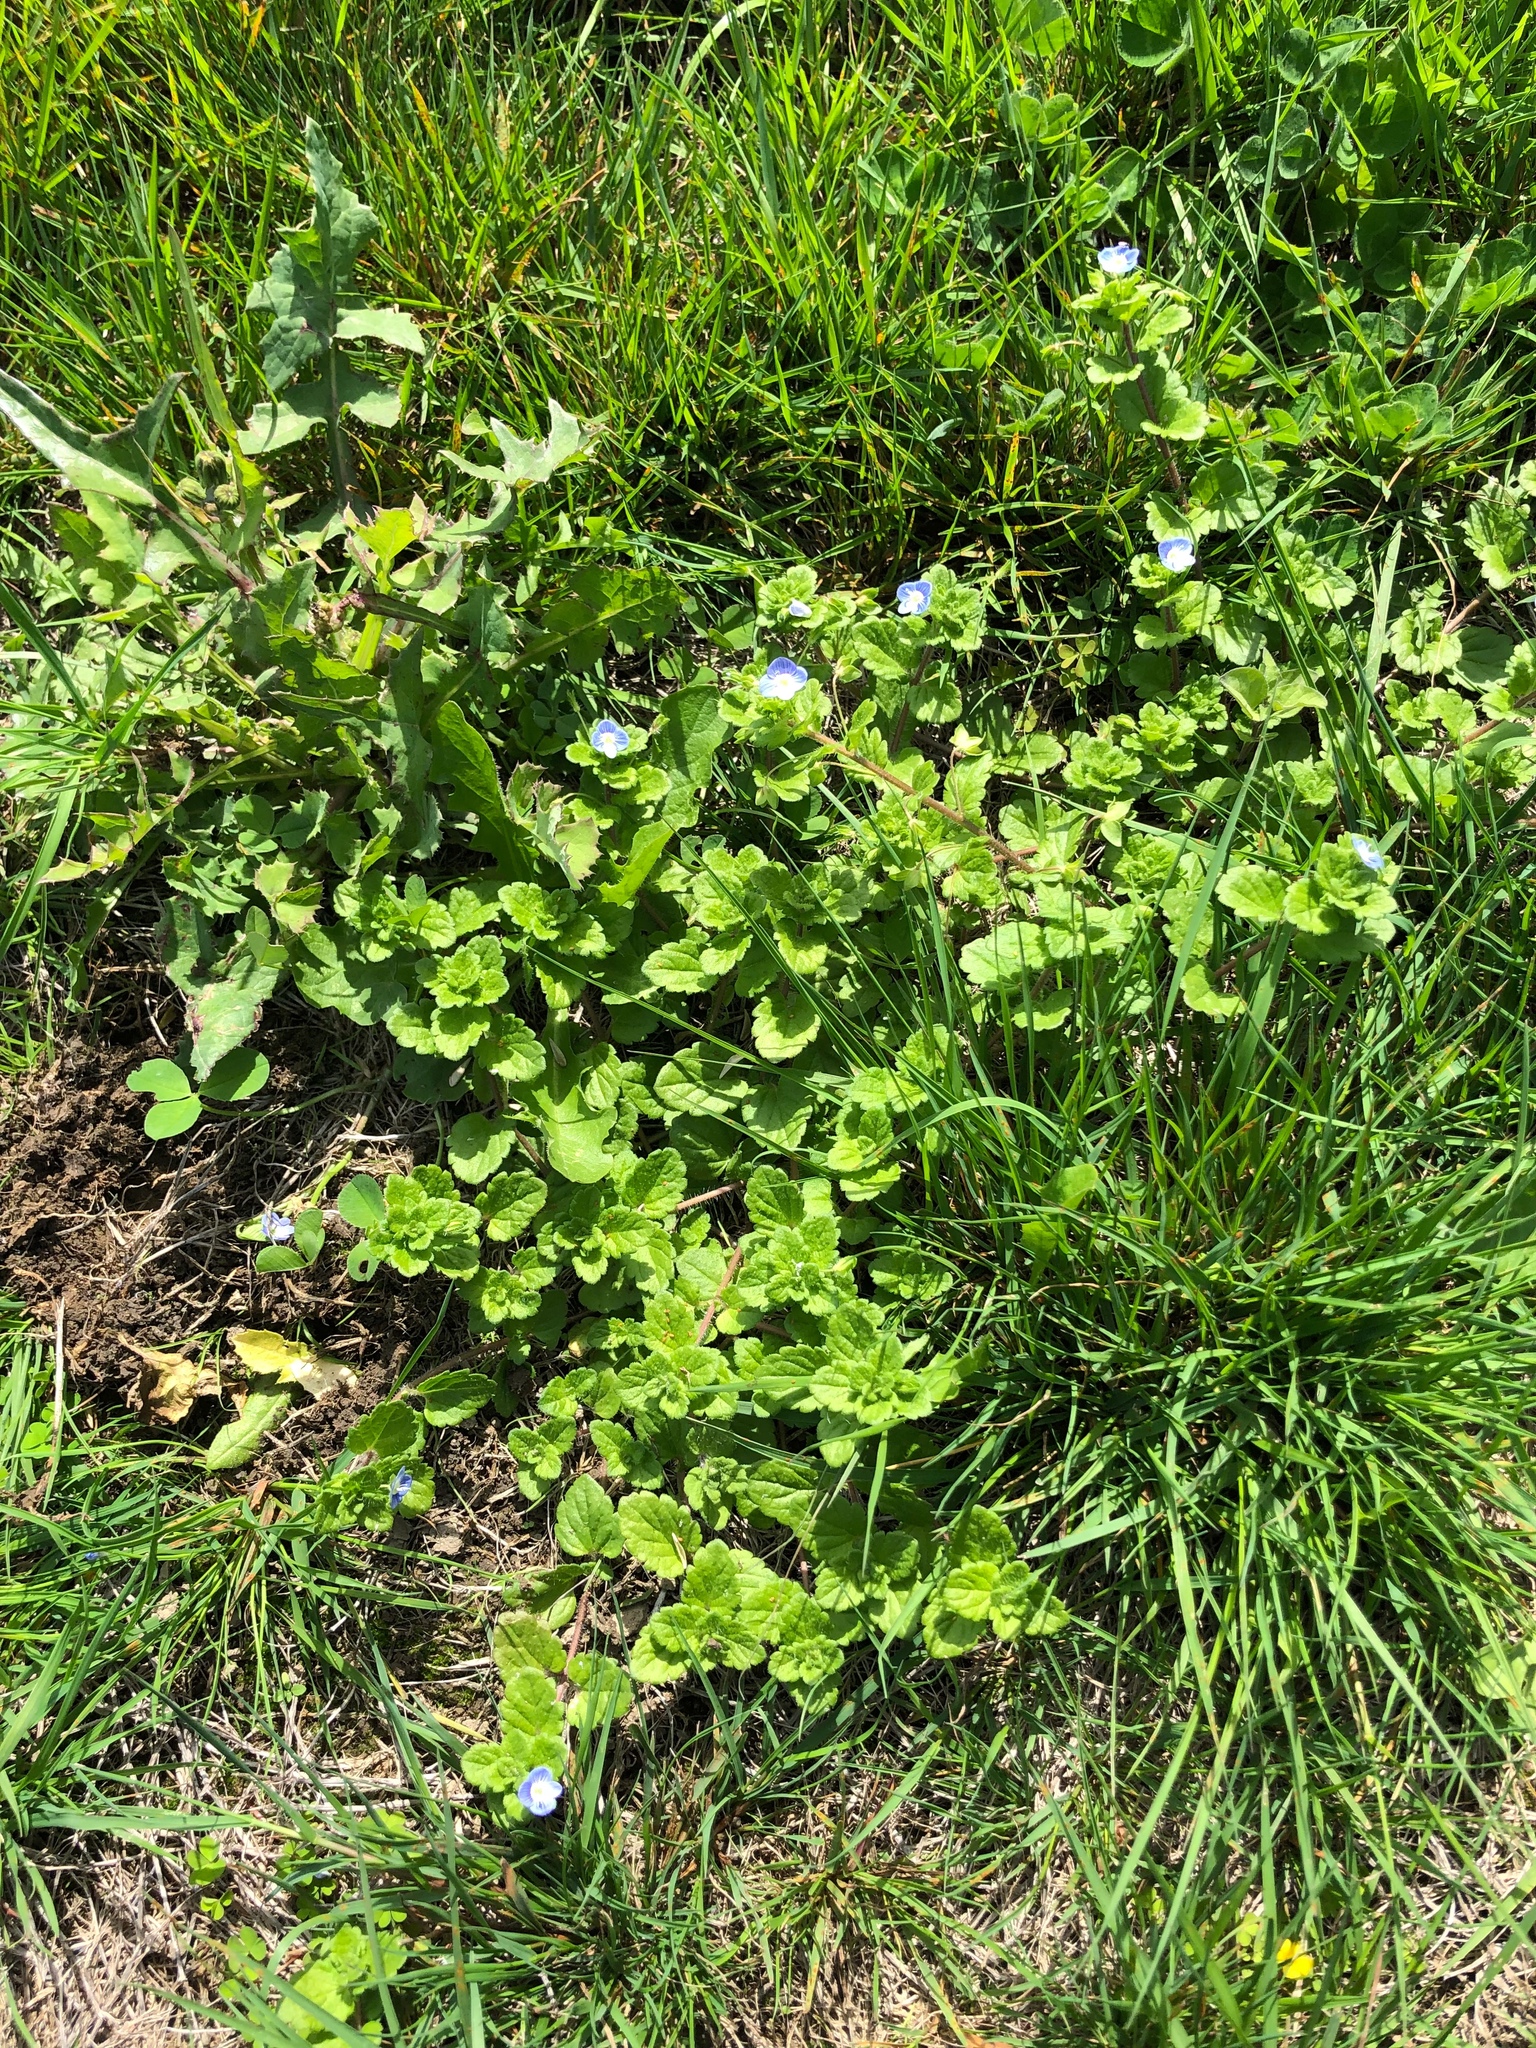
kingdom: Plantae
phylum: Tracheophyta
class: Magnoliopsida
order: Lamiales
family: Plantaginaceae
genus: Veronica
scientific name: Veronica persica
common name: Common field-speedwell
